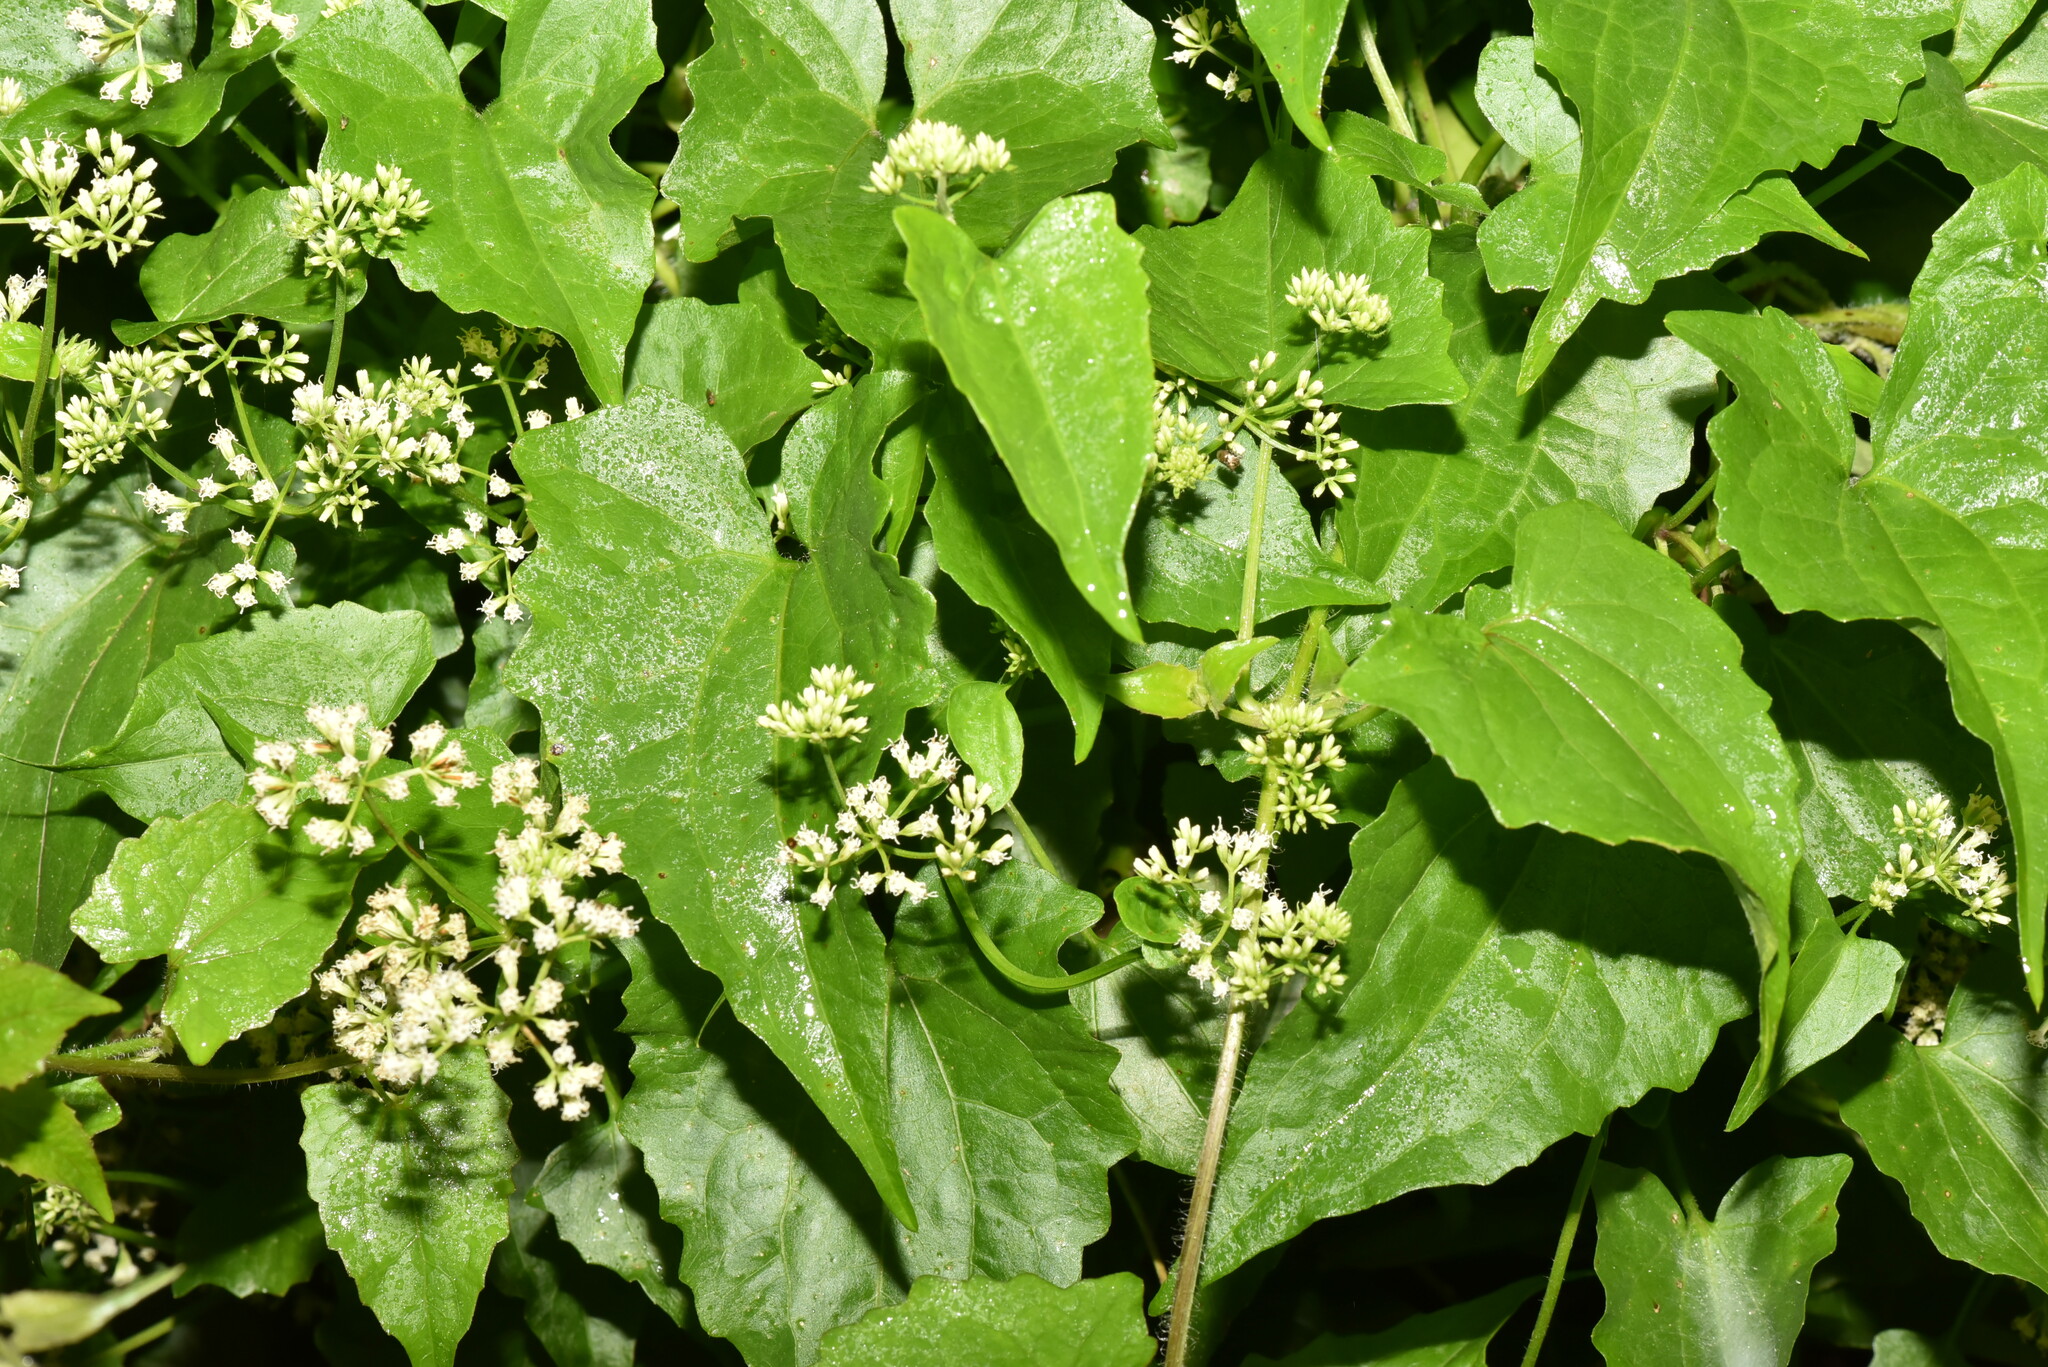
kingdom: Plantae
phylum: Tracheophyta
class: Magnoliopsida
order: Asterales
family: Asteraceae
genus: Mikania
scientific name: Mikania micrantha
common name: Mile-a-minute
